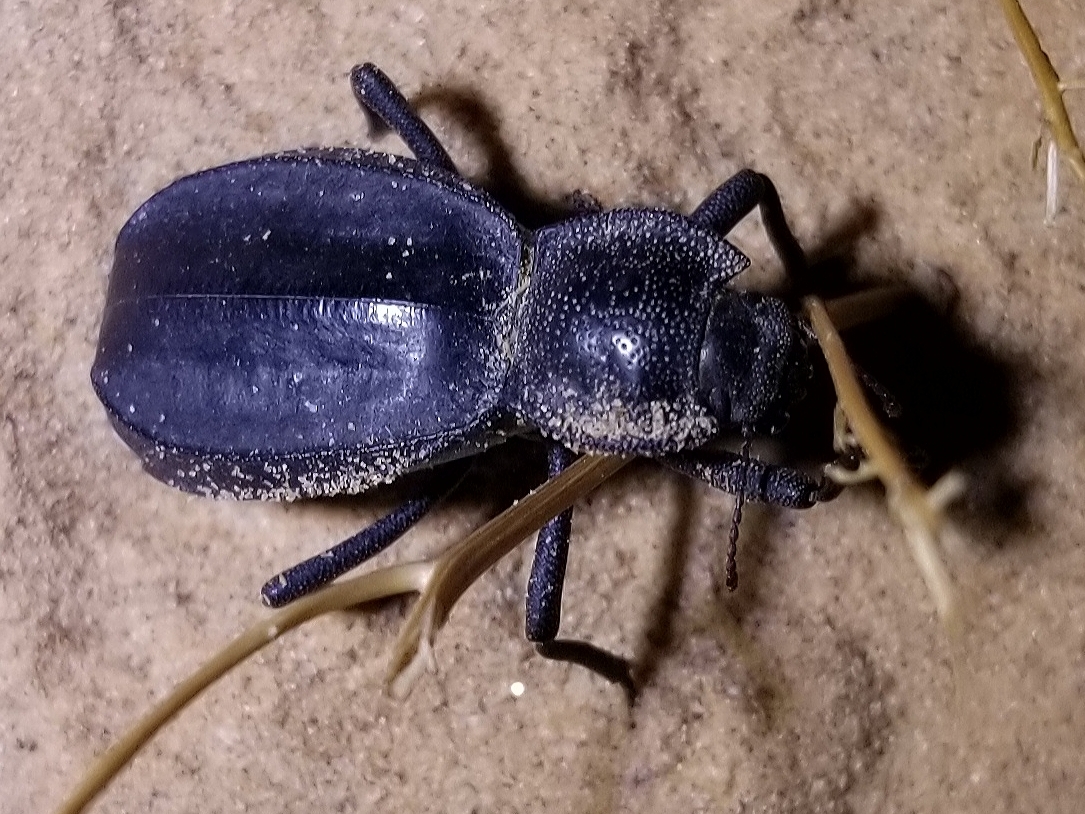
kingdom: Animalia
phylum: Arthropoda
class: Insecta
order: Coleoptera
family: Tenebrionidae
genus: Stenomorpha
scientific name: Stenomorpha confluens
